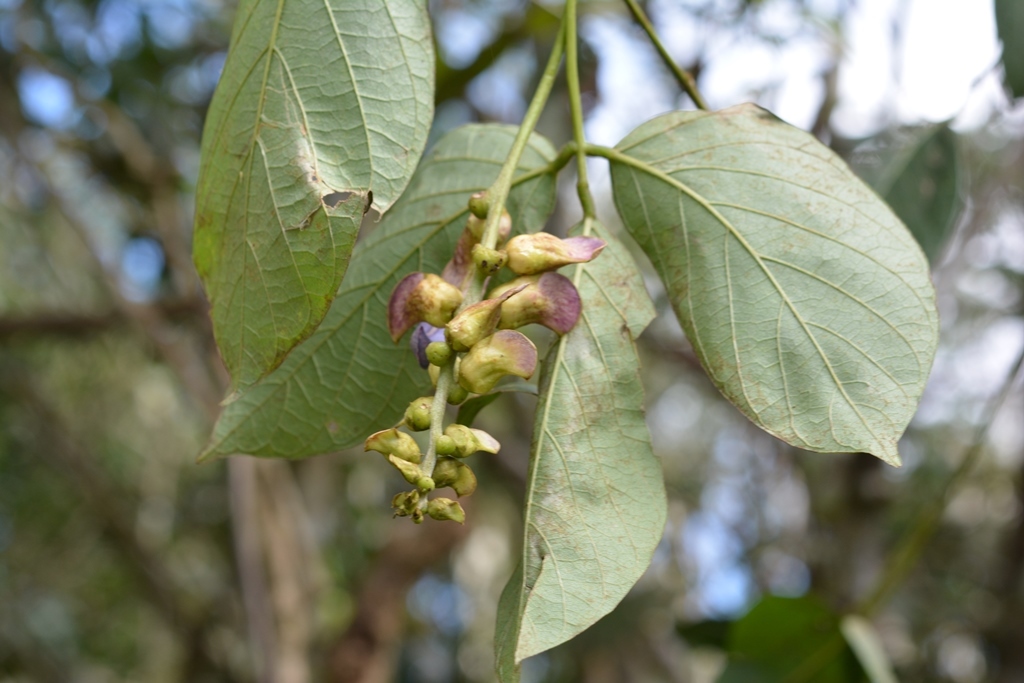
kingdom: Plantae
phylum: Tracheophyta
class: Magnoliopsida
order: Fabales
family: Fabaceae
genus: Canavalia
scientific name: Canavalia oxyphylla
